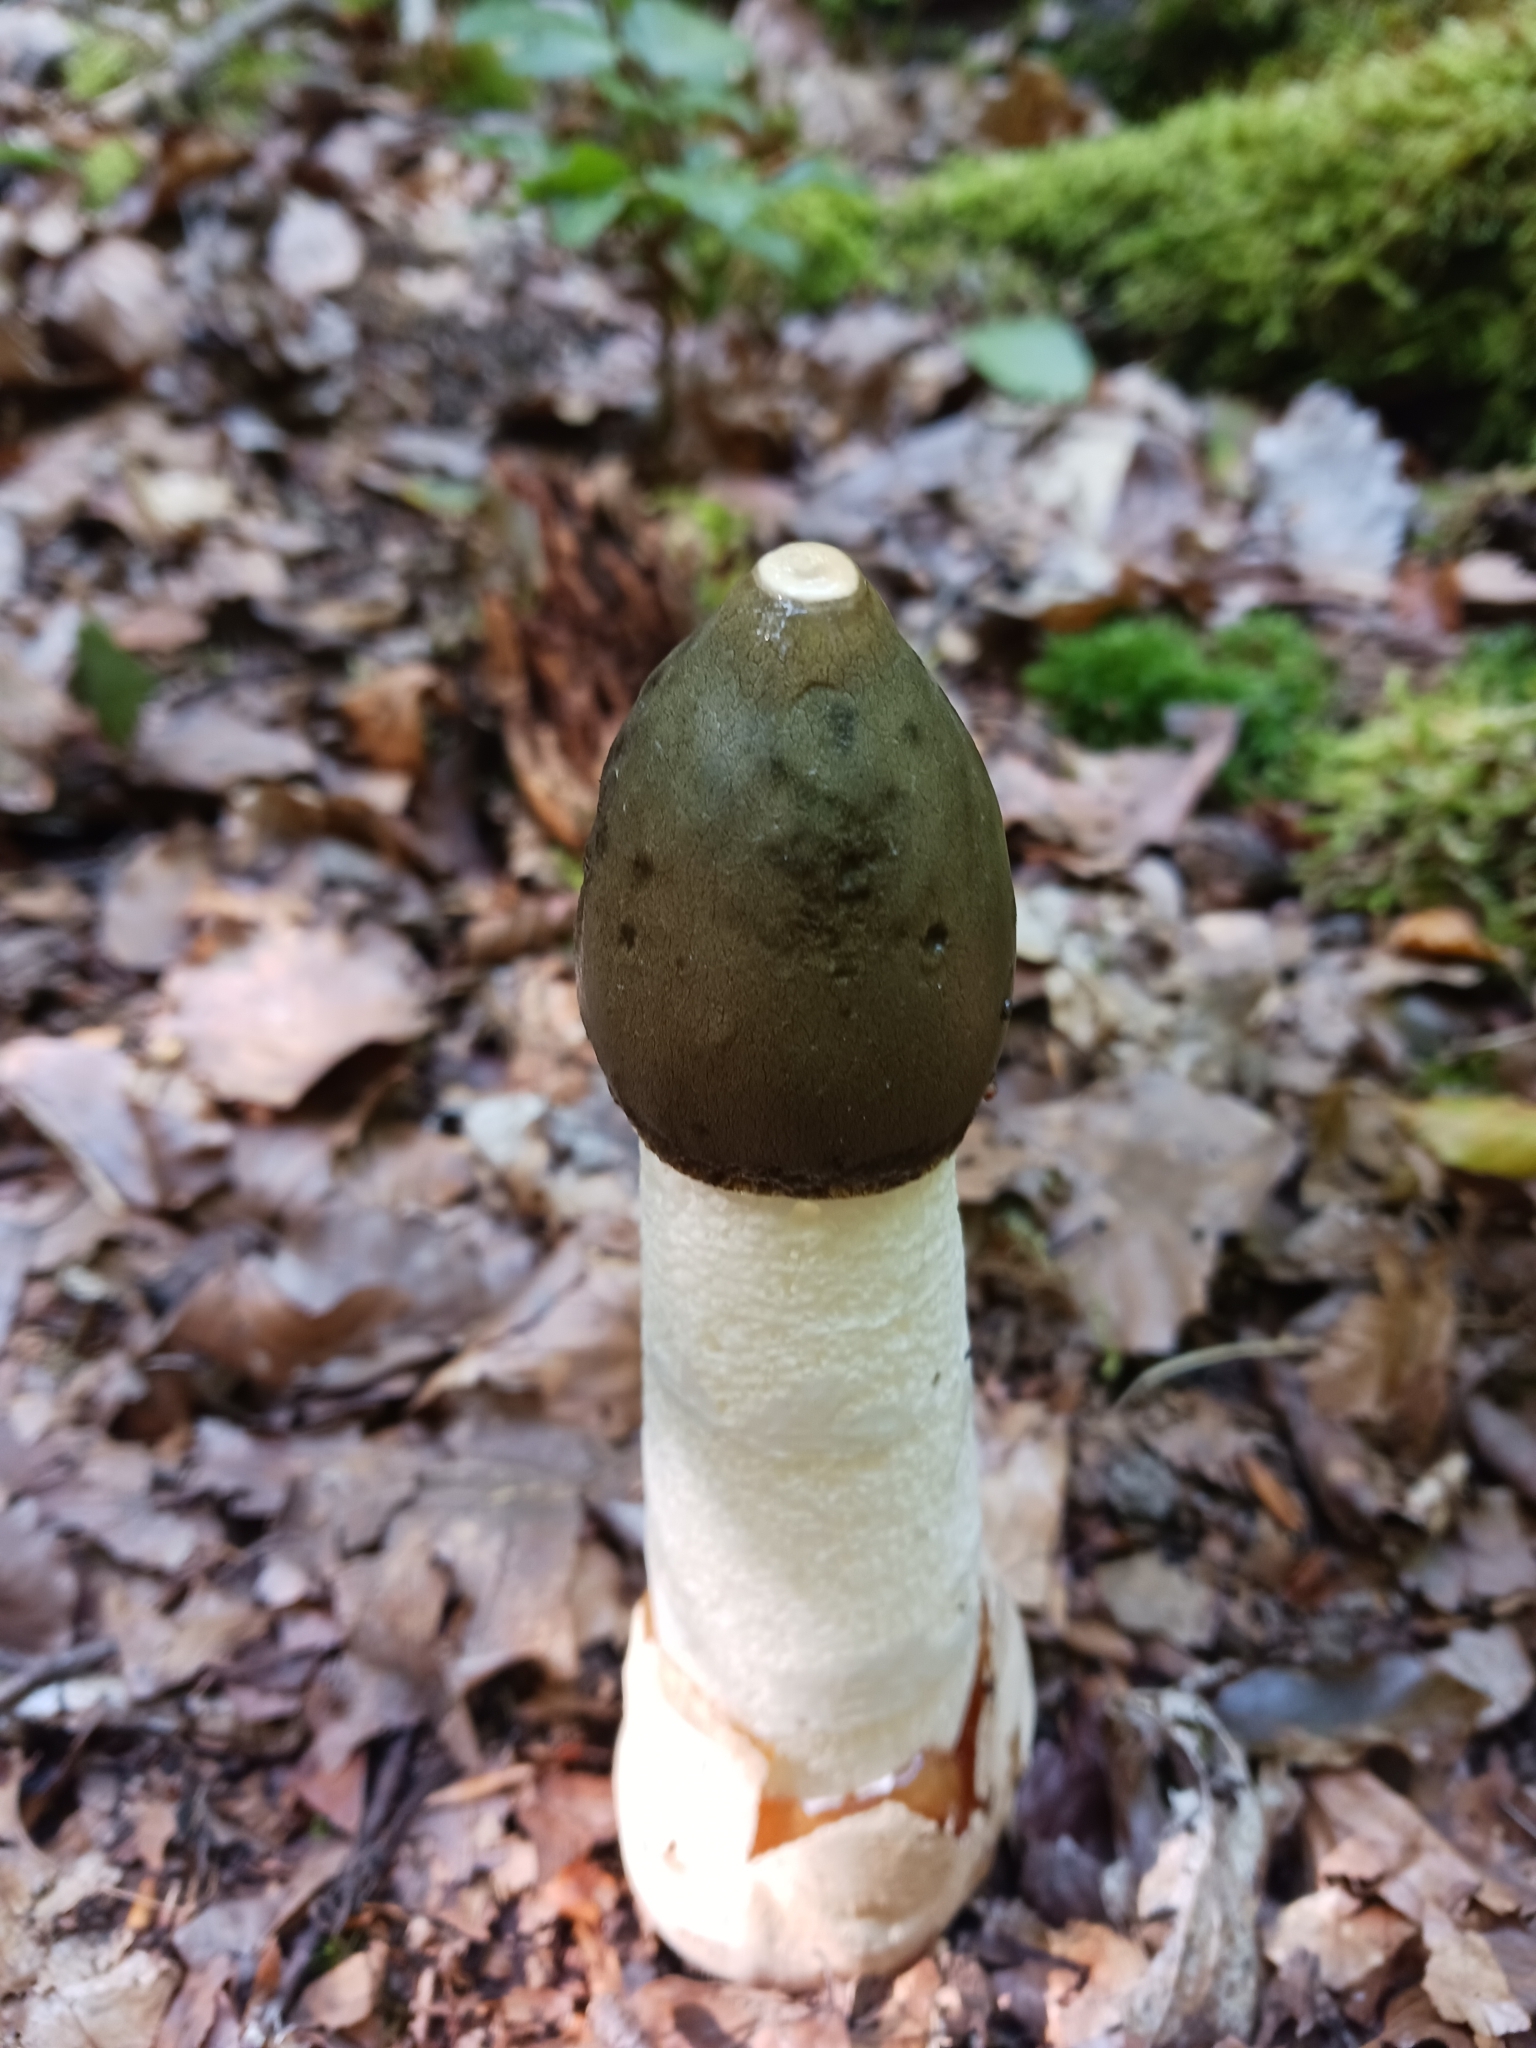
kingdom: Fungi
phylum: Basidiomycota
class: Agaricomycetes
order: Phallales
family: Phallaceae
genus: Phallus
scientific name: Phallus impudicus
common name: Common stinkhorn
